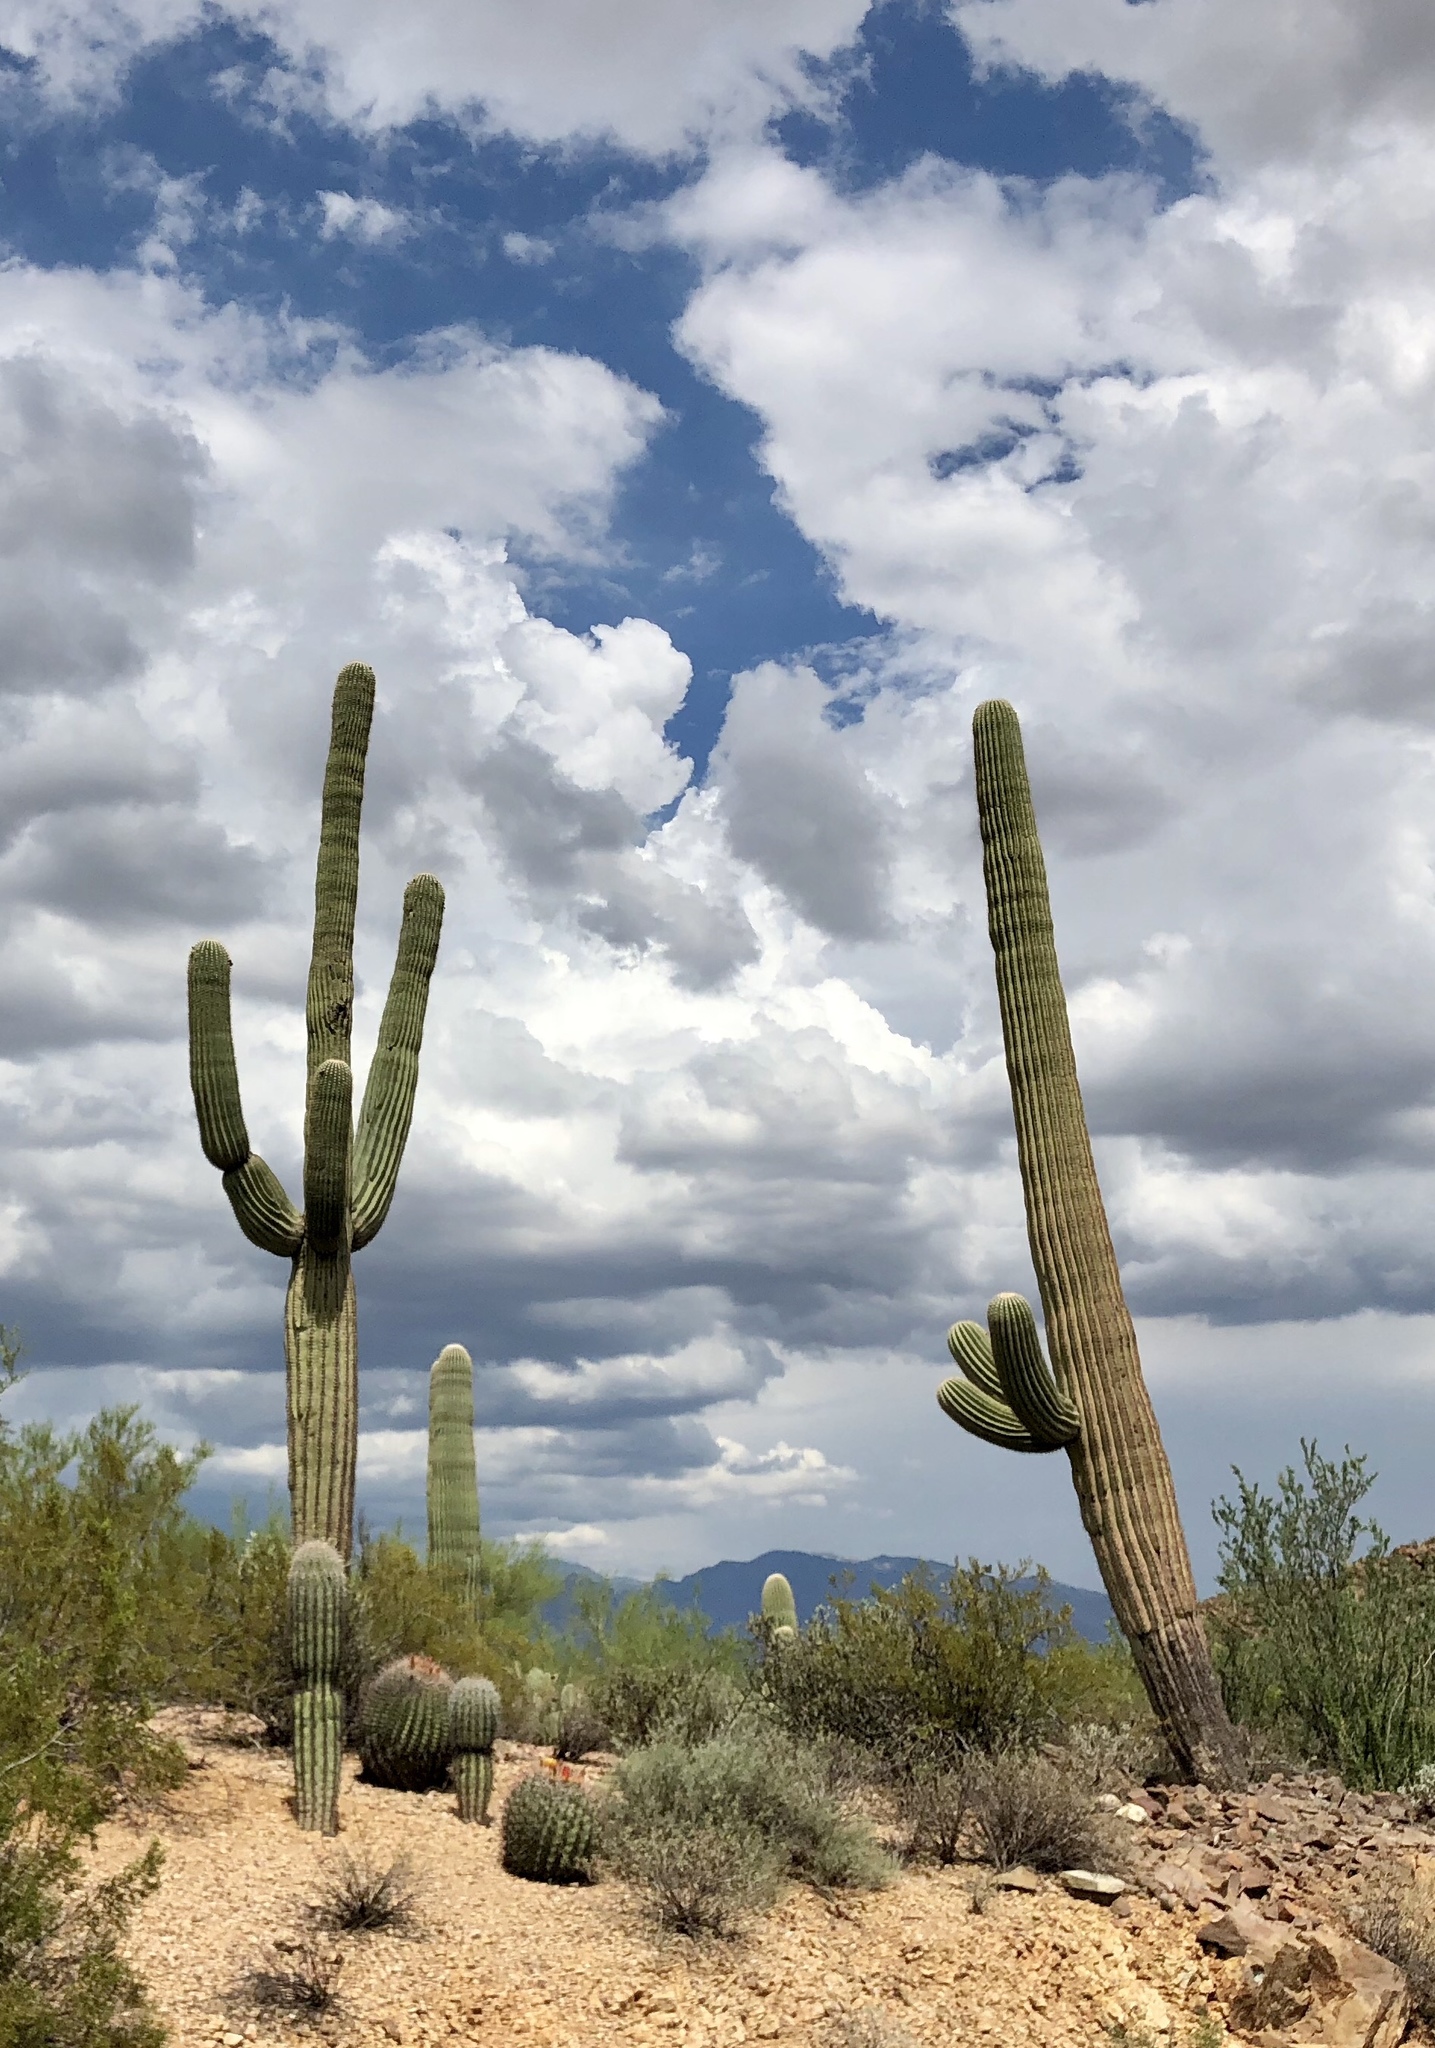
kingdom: Plantae
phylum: Tracheophyta
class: Magnoliopsida
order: Caryophyllales
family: Cactaceae
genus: Carnegiea
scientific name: Carnegiea gigantea
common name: Saguaro
